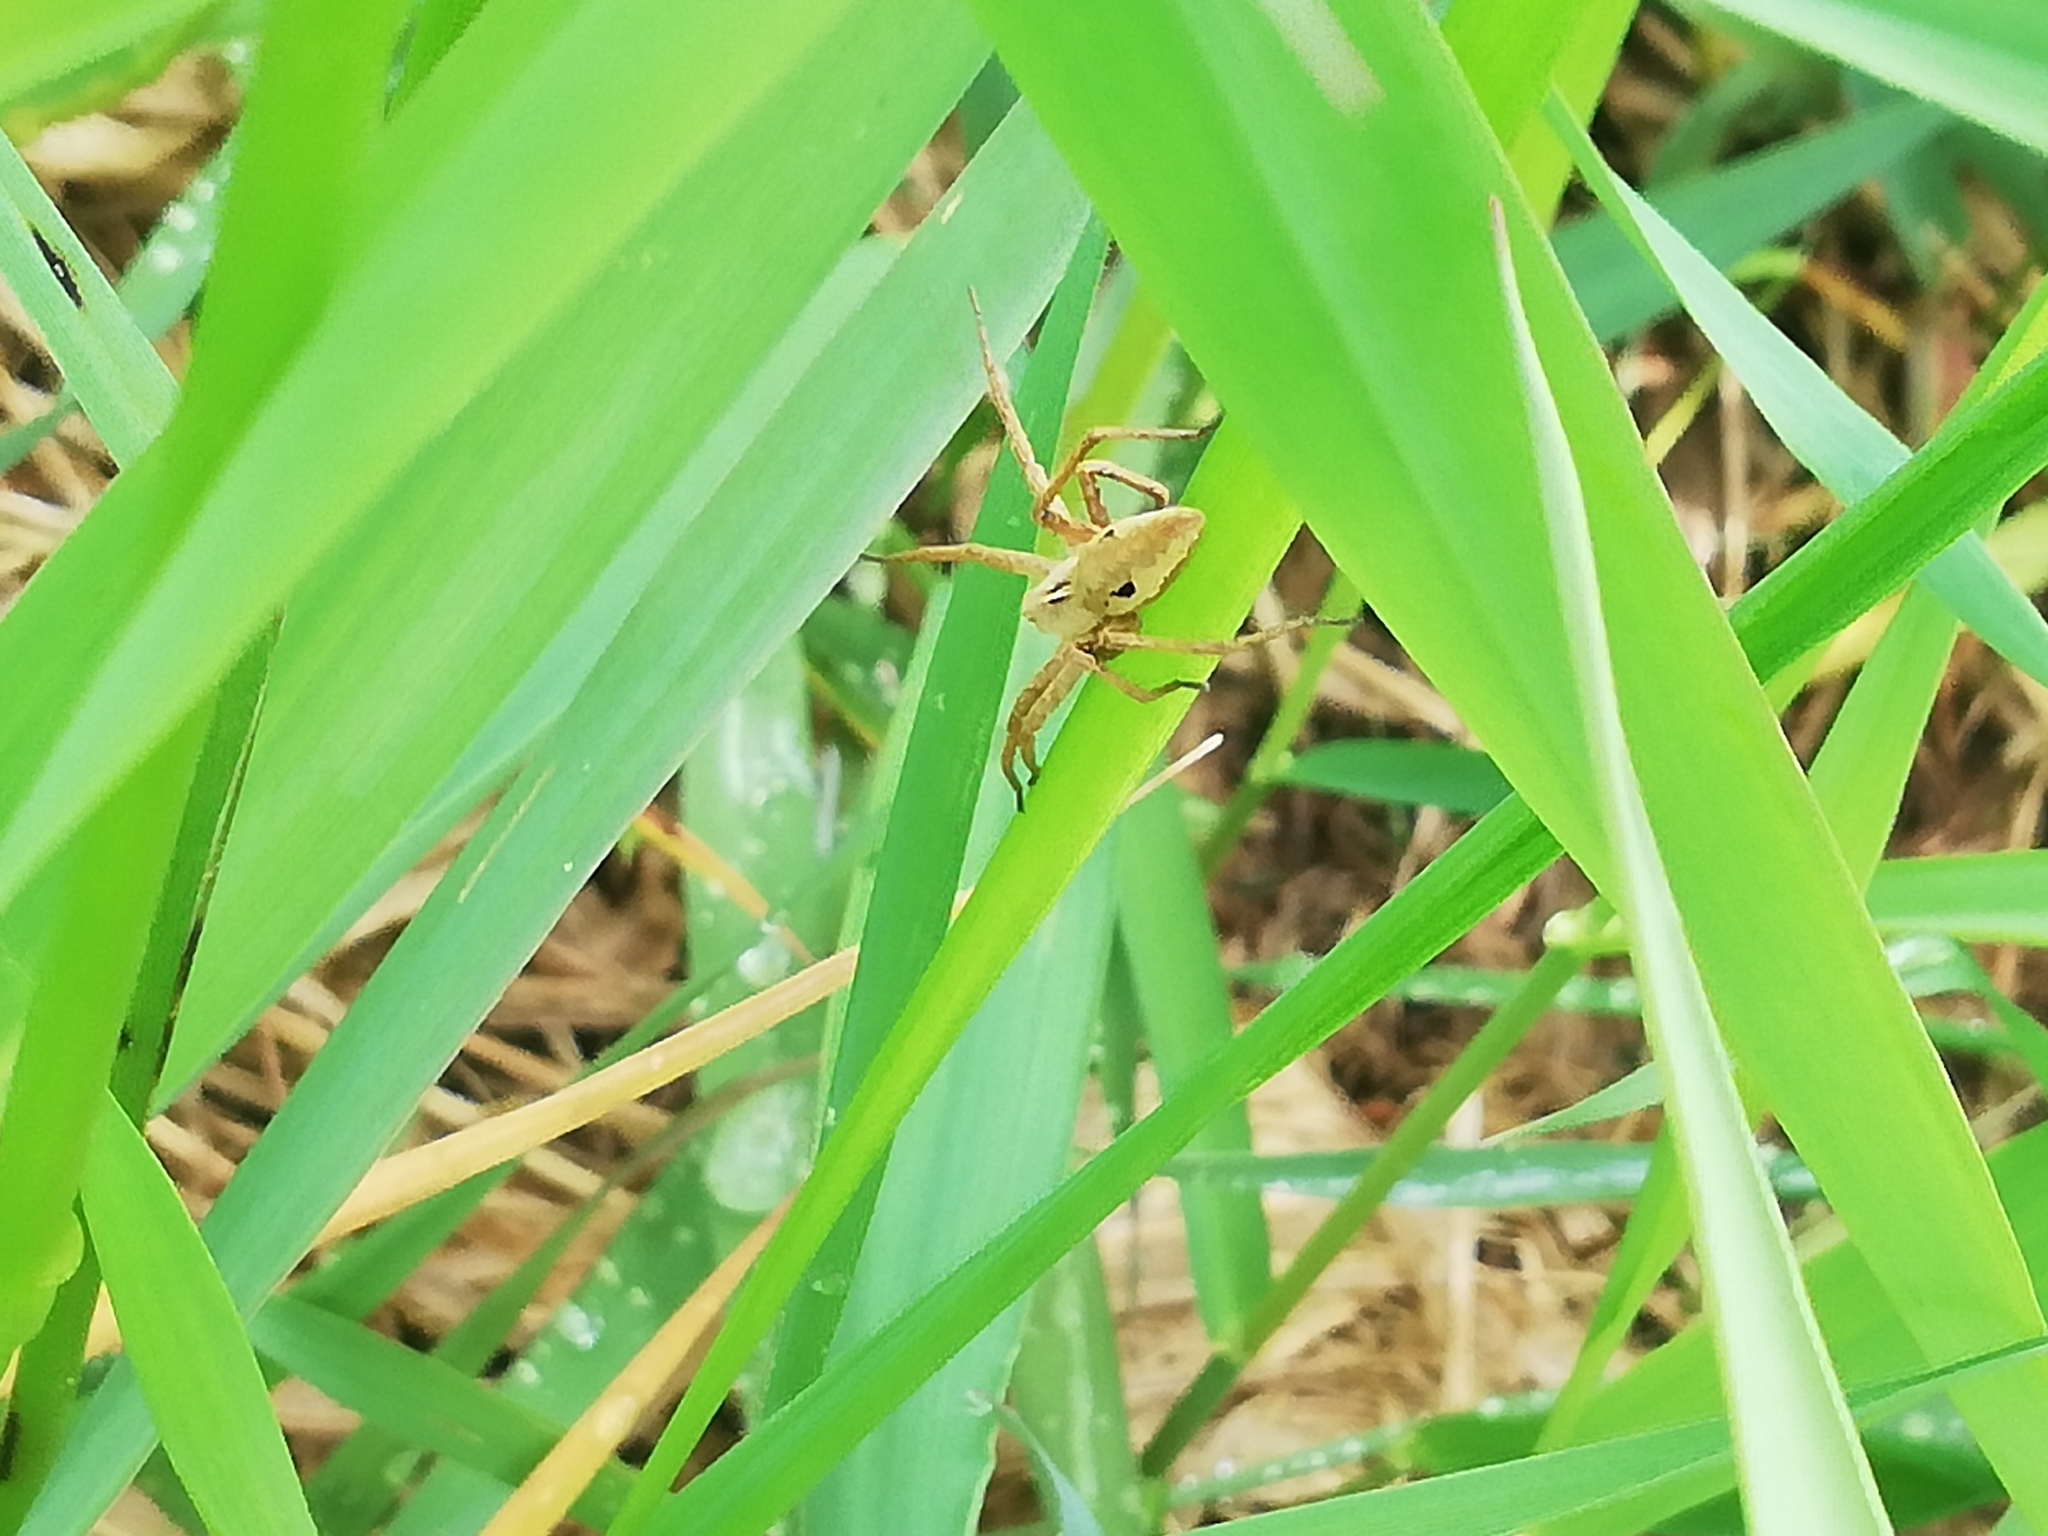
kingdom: Animalia
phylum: Arthropoda
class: Arachnida
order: Araneae
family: Pisauridae
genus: Pisaura
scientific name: Pisaura mirabilis
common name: Tent spider
